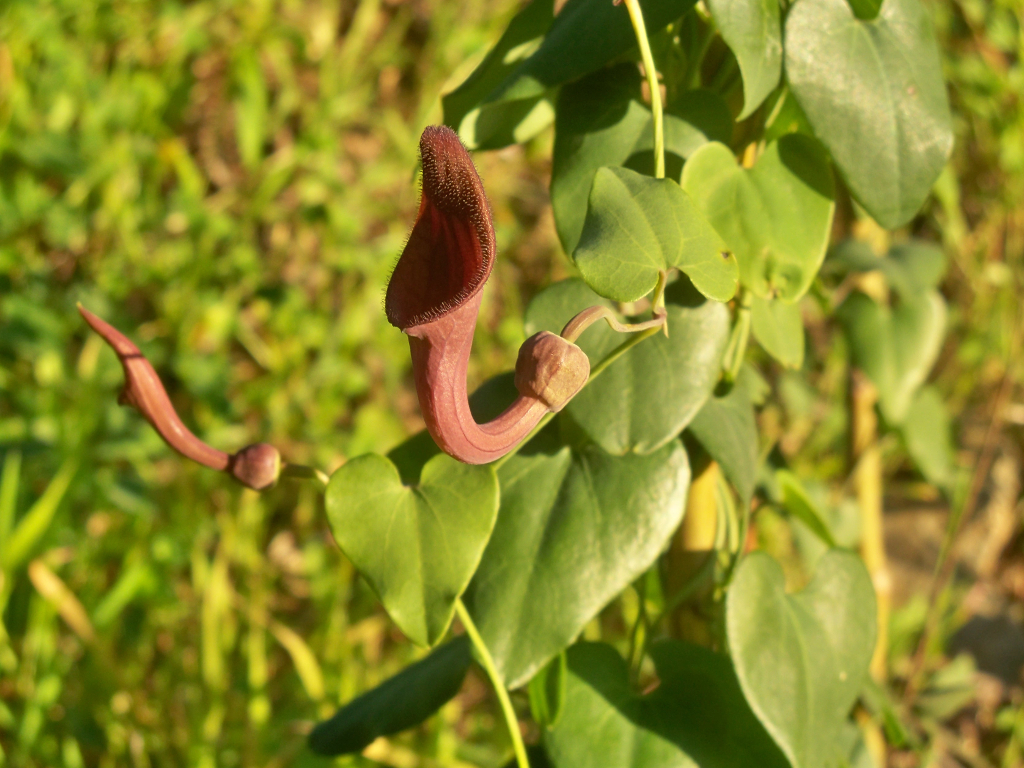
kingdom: Plantae
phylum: Tracheophyta
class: Magnoliopsida
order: Piperales
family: Aristolochiaceae
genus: Aristolochia
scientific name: Aristolochia baetica
